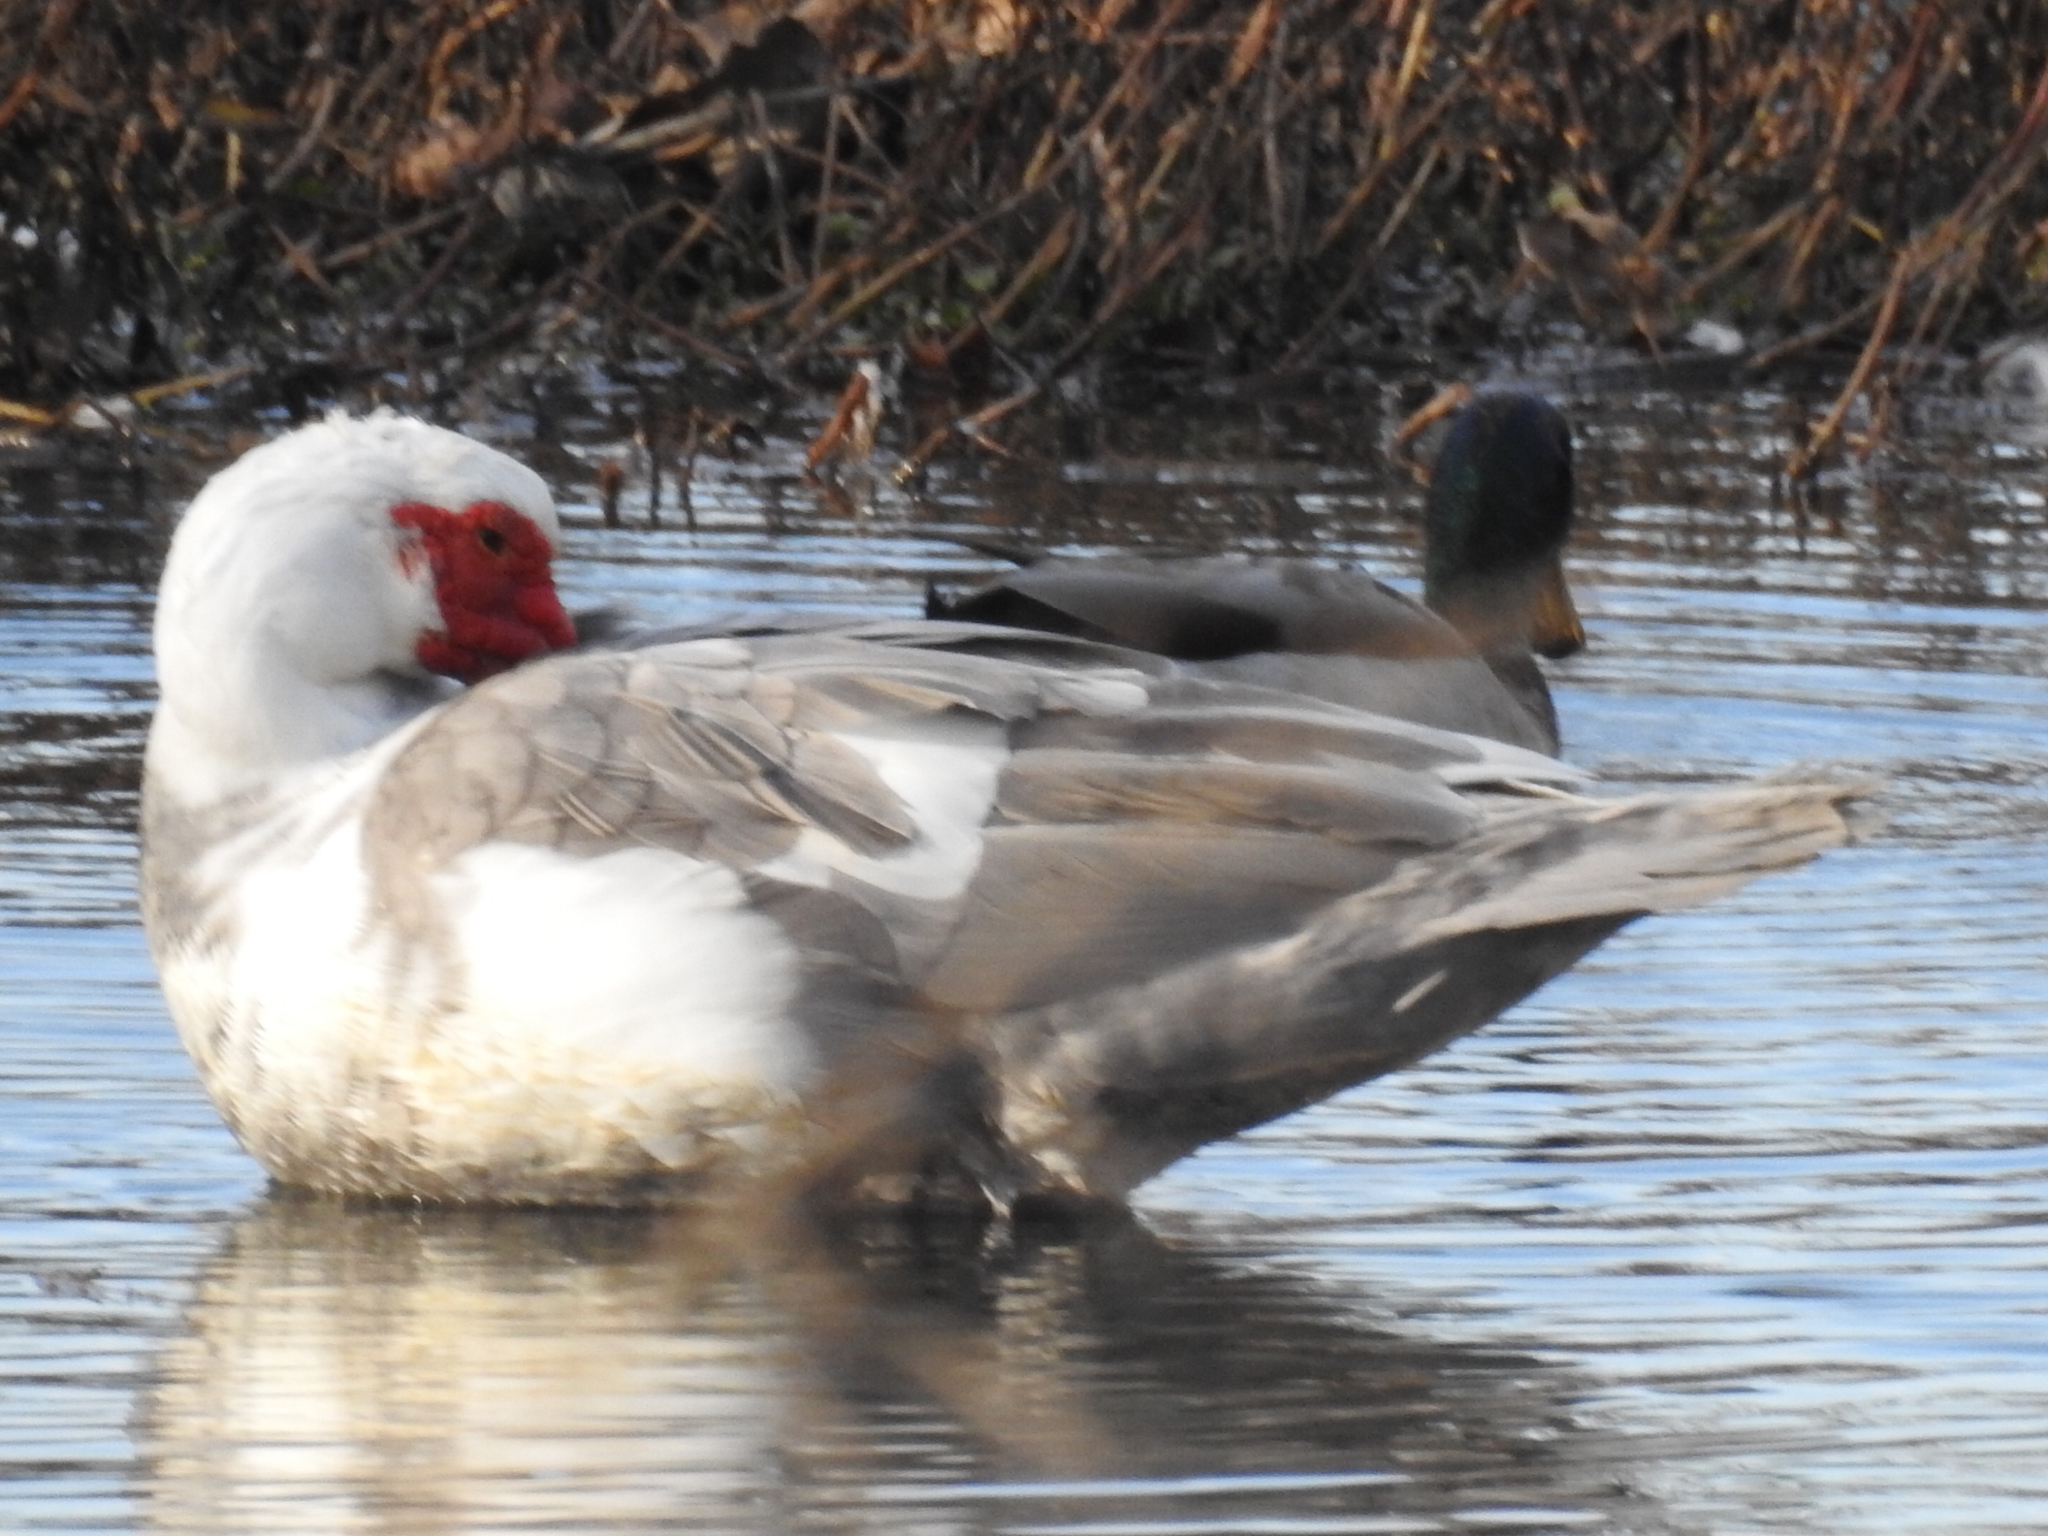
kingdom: Animalia
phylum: Chordata
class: Aves
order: Anseriformes
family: Anatidae
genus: Cairina
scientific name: Cairina moschata
